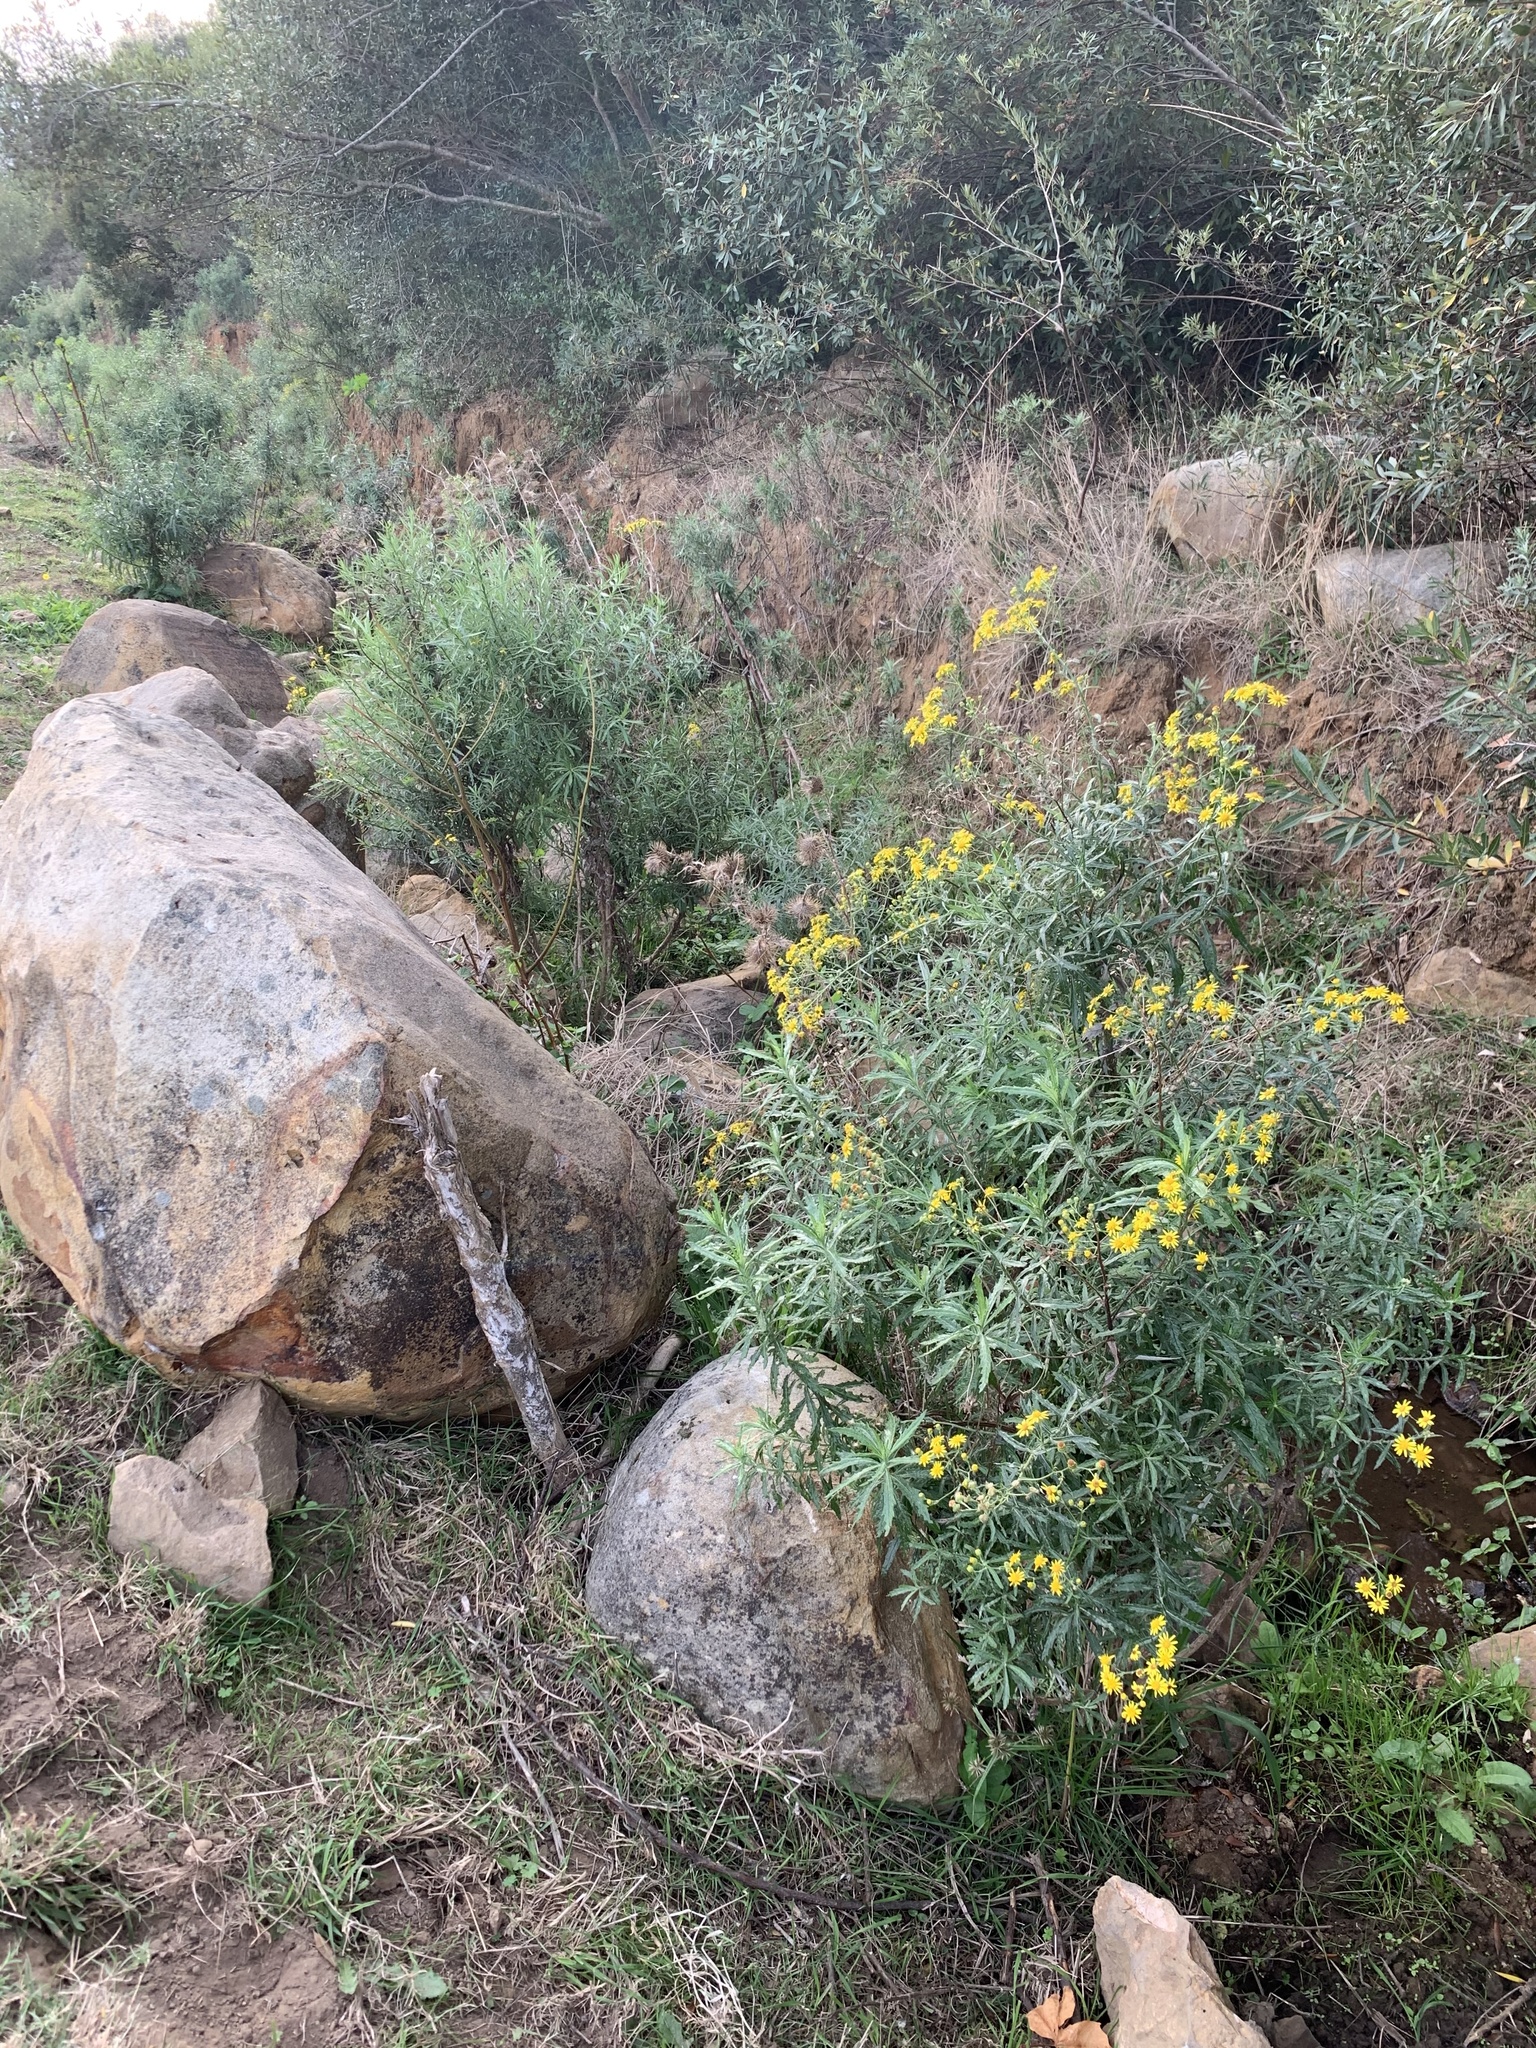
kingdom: Plantae
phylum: Tracheophyta
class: Magnoliopsida
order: Asterales
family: Asteraceae
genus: Senecio
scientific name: Senecio pterophorus
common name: Shoddy ragwort
